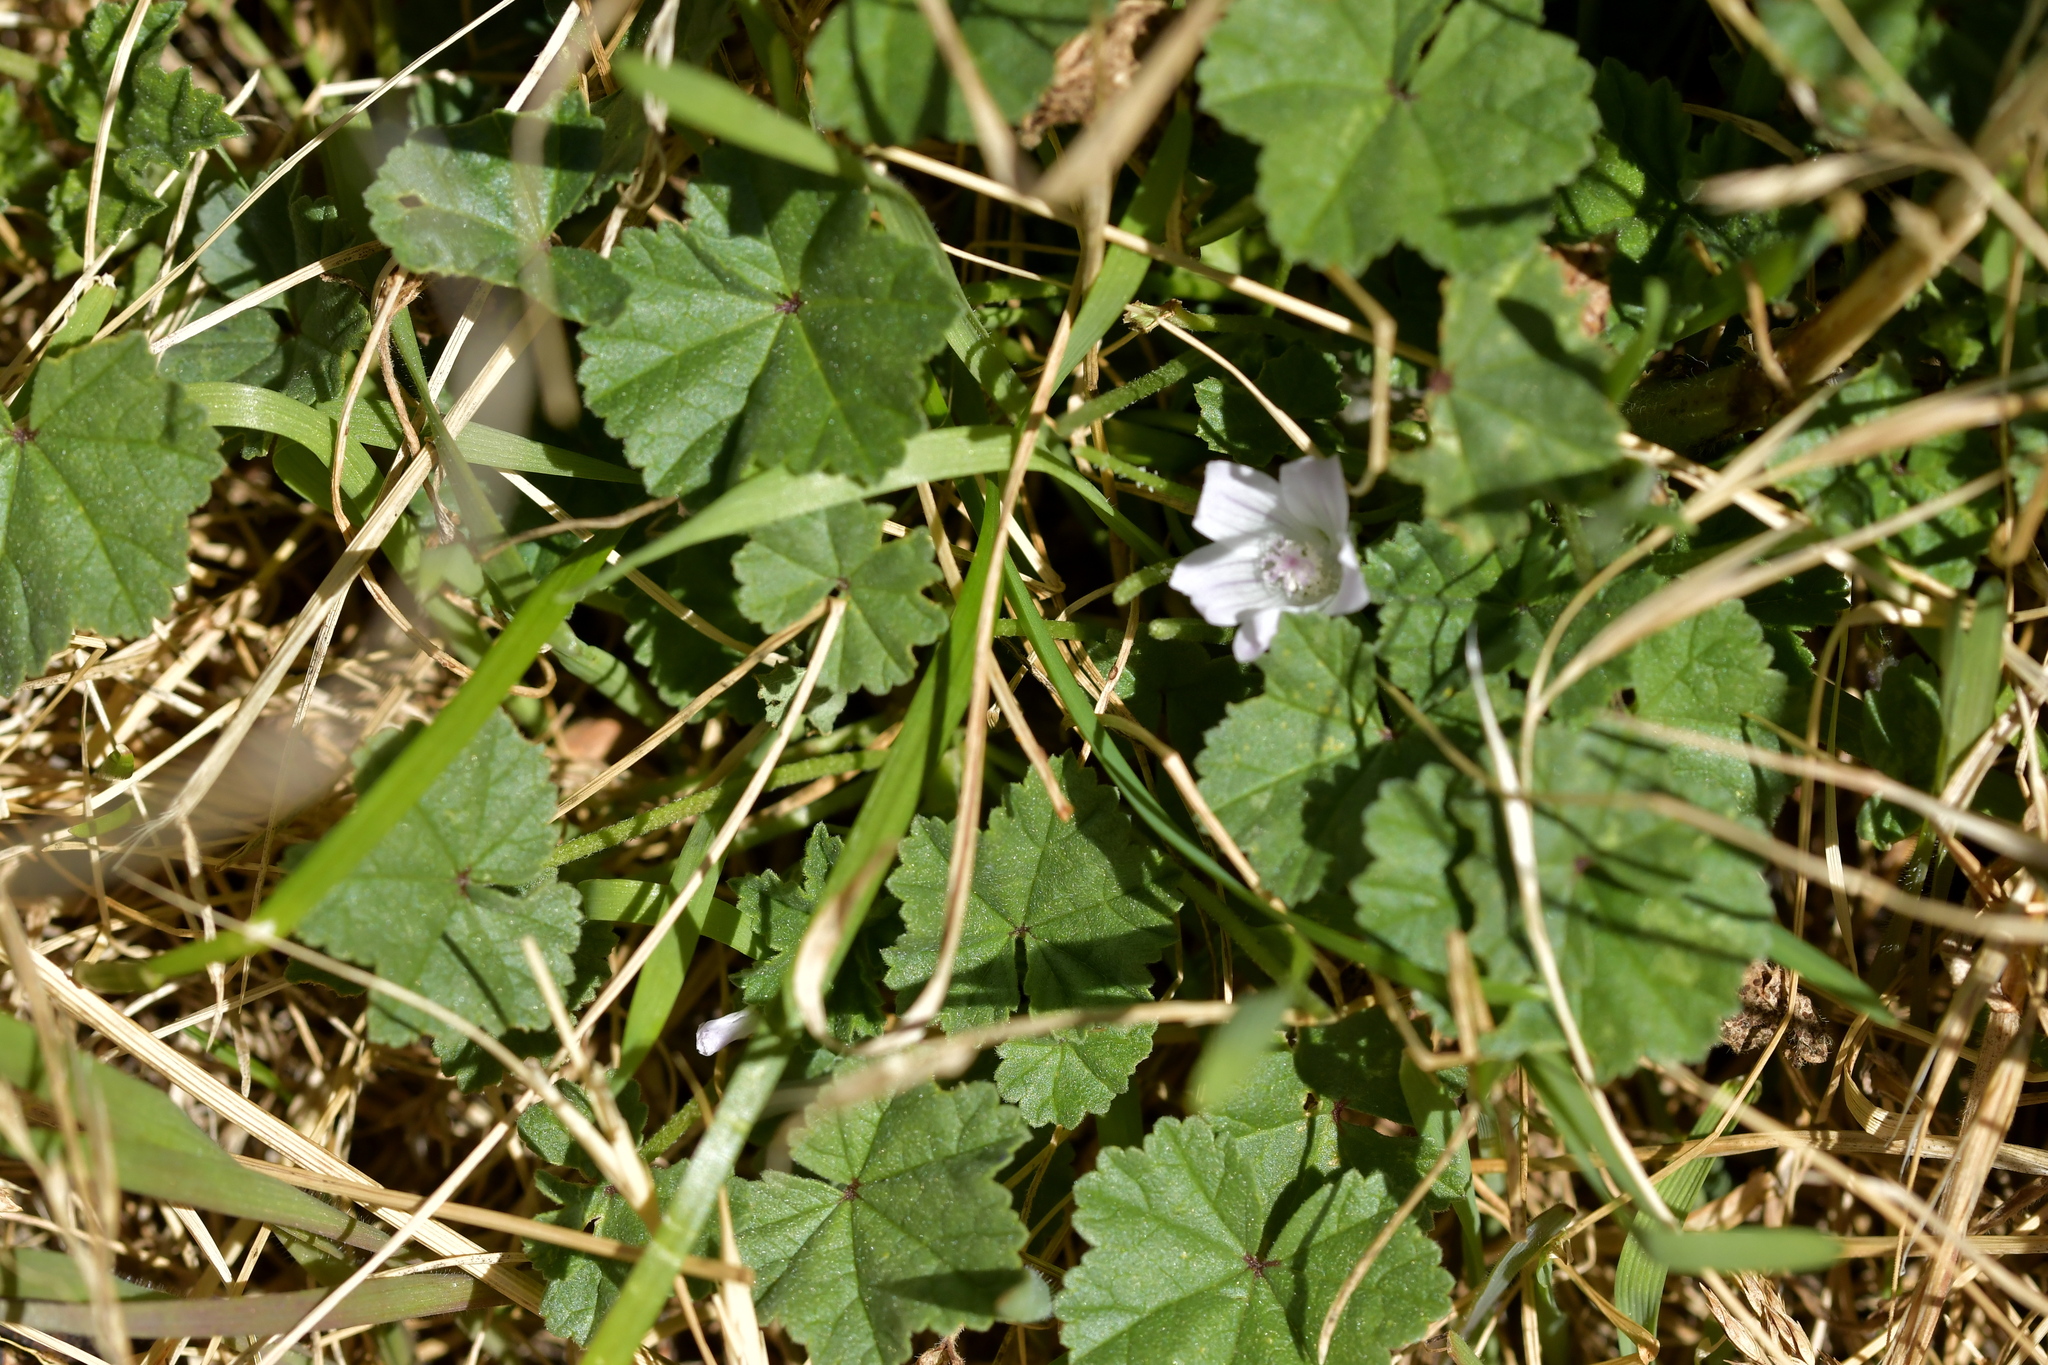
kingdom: Plantae
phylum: Tracheophyta
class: Magnoliopsida
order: Malvales
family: Malvaceae
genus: Malva
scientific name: Malva neglecta
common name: Common mallow
